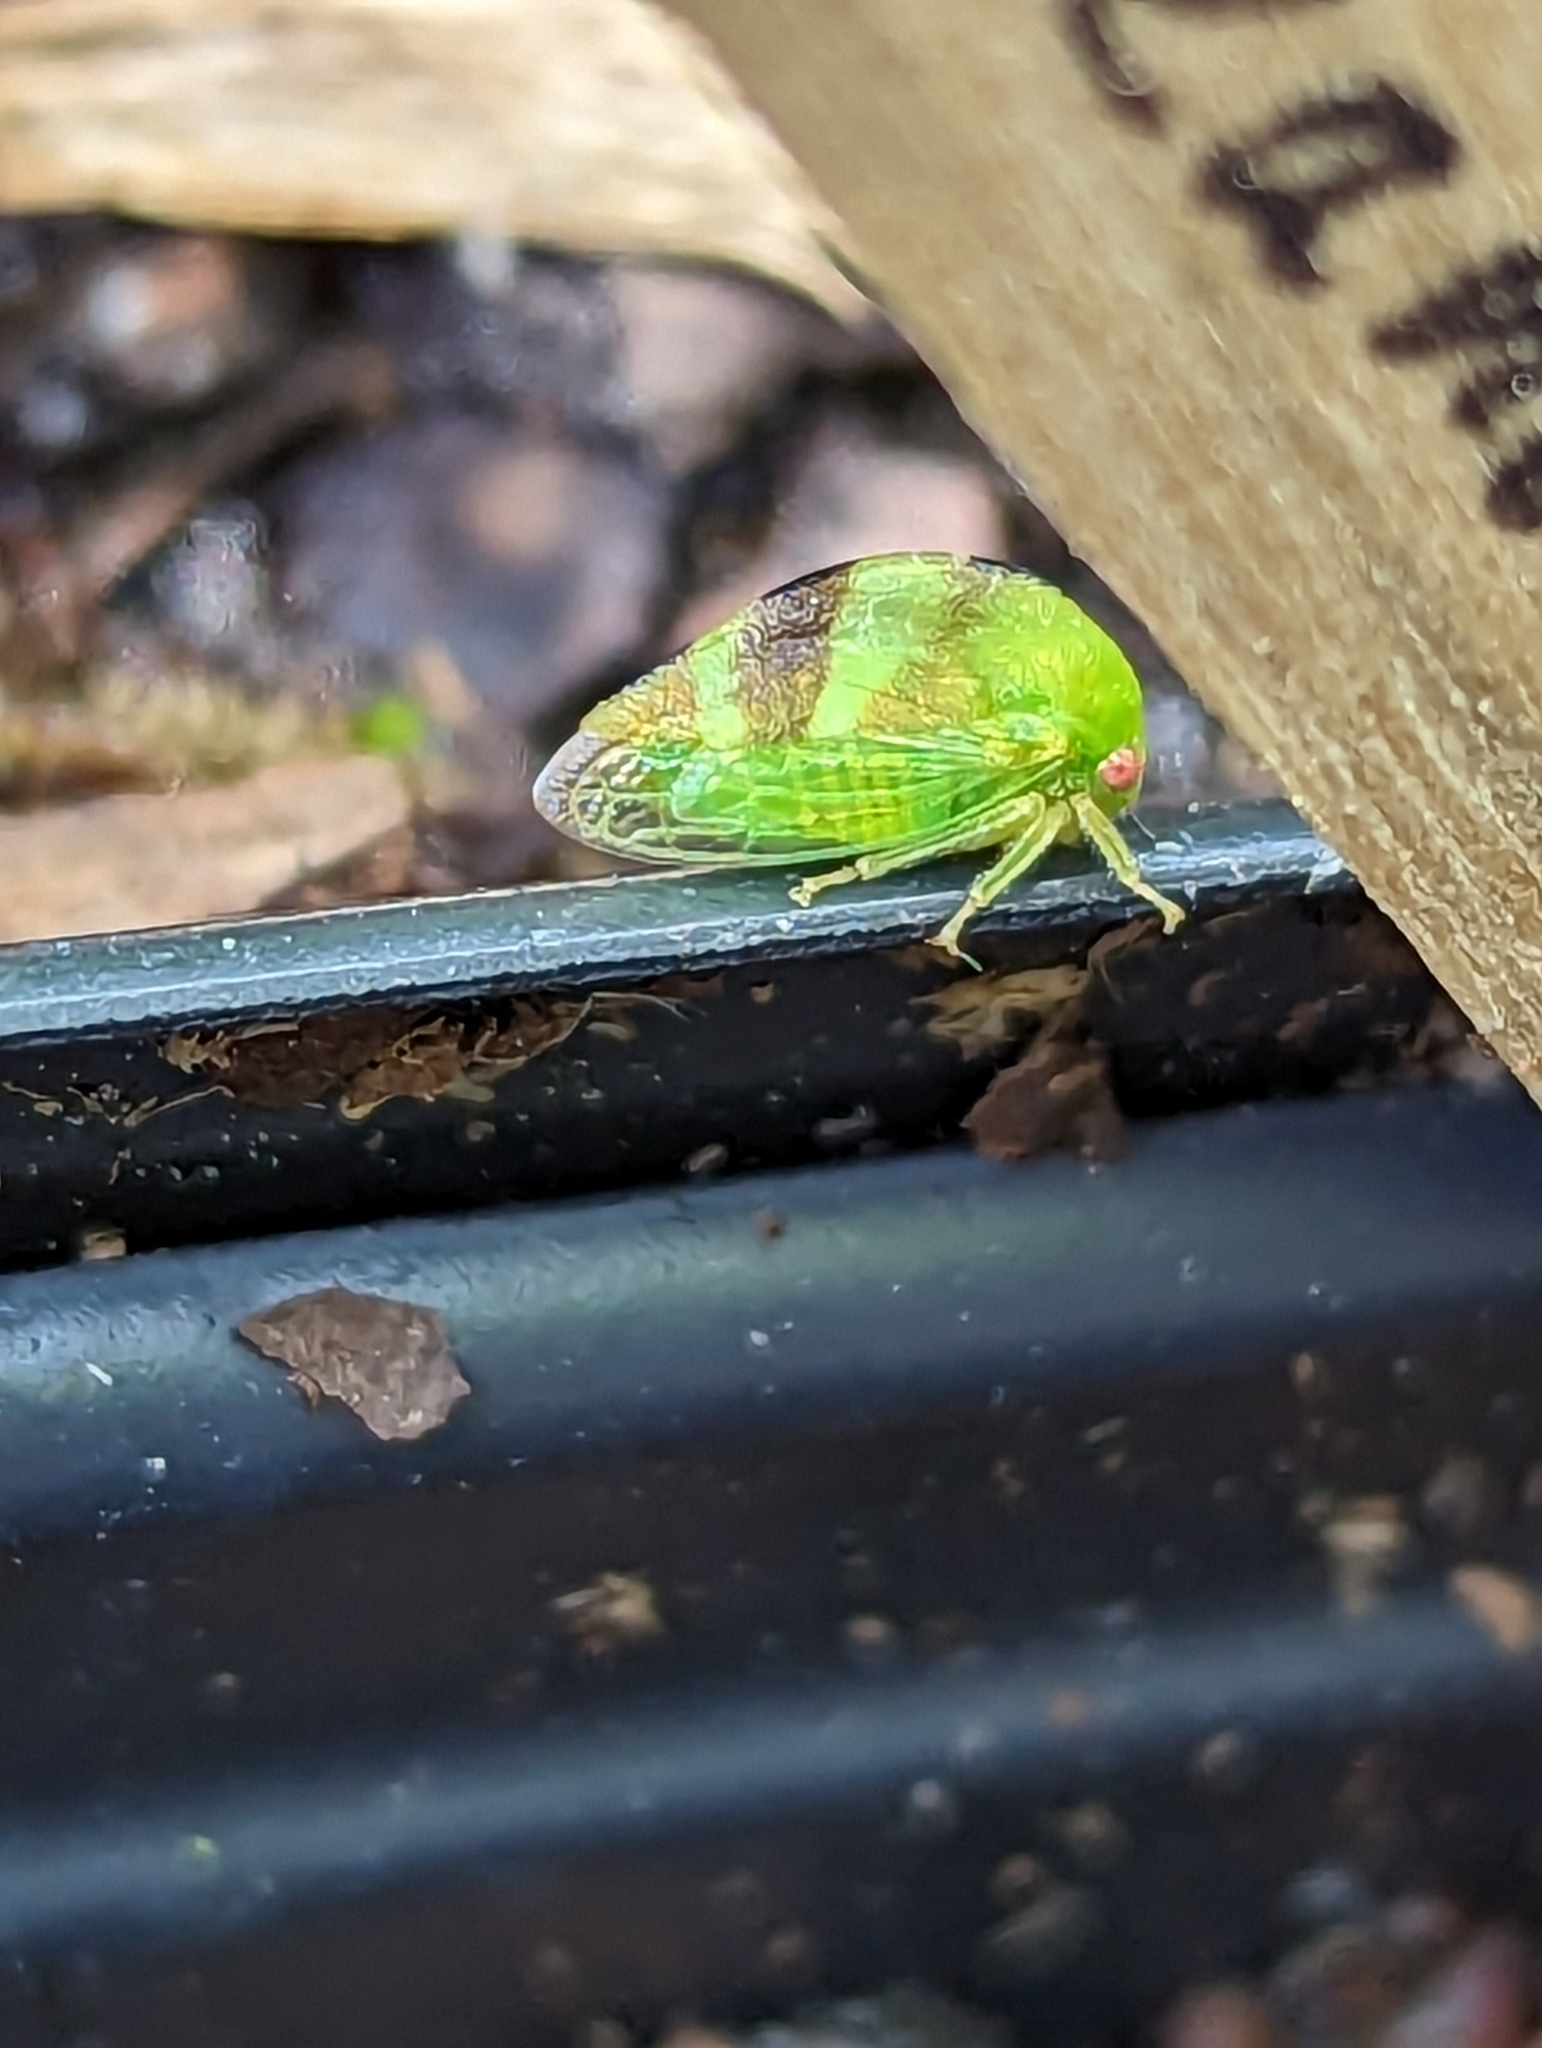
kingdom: Animalia
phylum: Arthropoda
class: Insecta
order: Hemiptera
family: Membracidae
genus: Cyrtolobus
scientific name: Cyrtolobus auroreus
